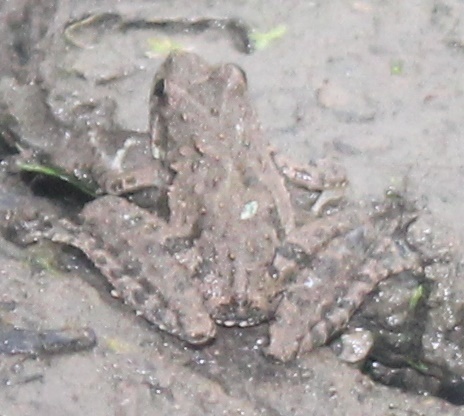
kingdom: Animalia
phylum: Chordata
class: Amphibia
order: Anura
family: Hylidae
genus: Acris
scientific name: Acris blanchardi
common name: Blanchard's cricket frog
